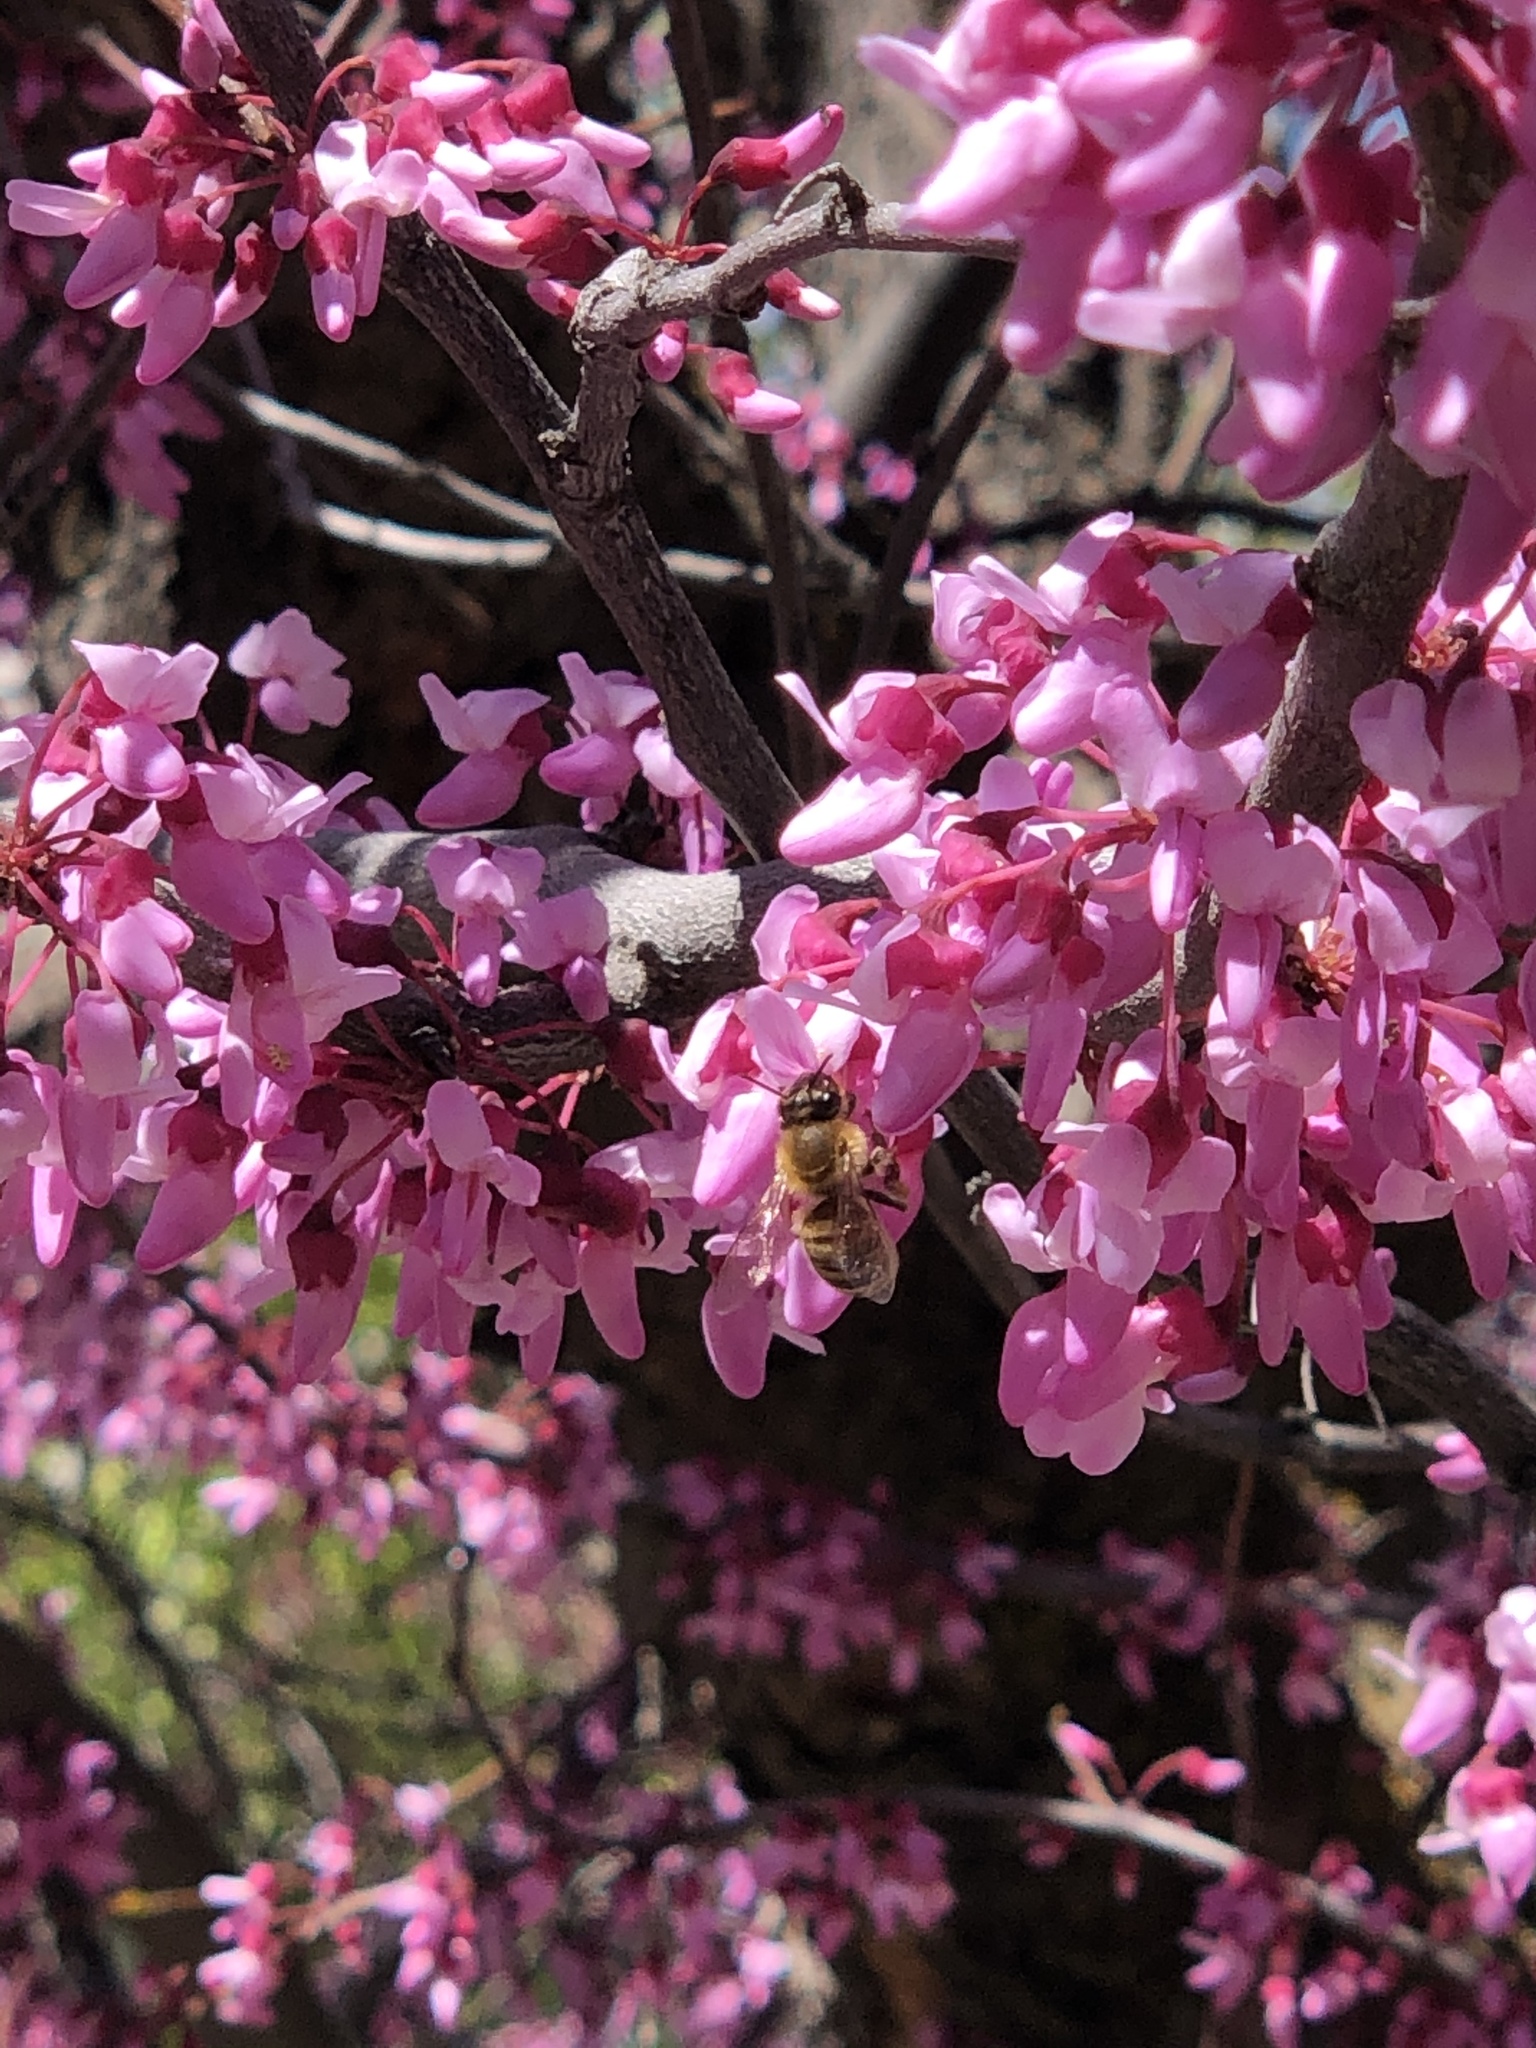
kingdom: Animalia
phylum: Arthropoda
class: Insecta
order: Hymenoptera
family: Apidae
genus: Apis
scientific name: Apis mellifera
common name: Honey bee
